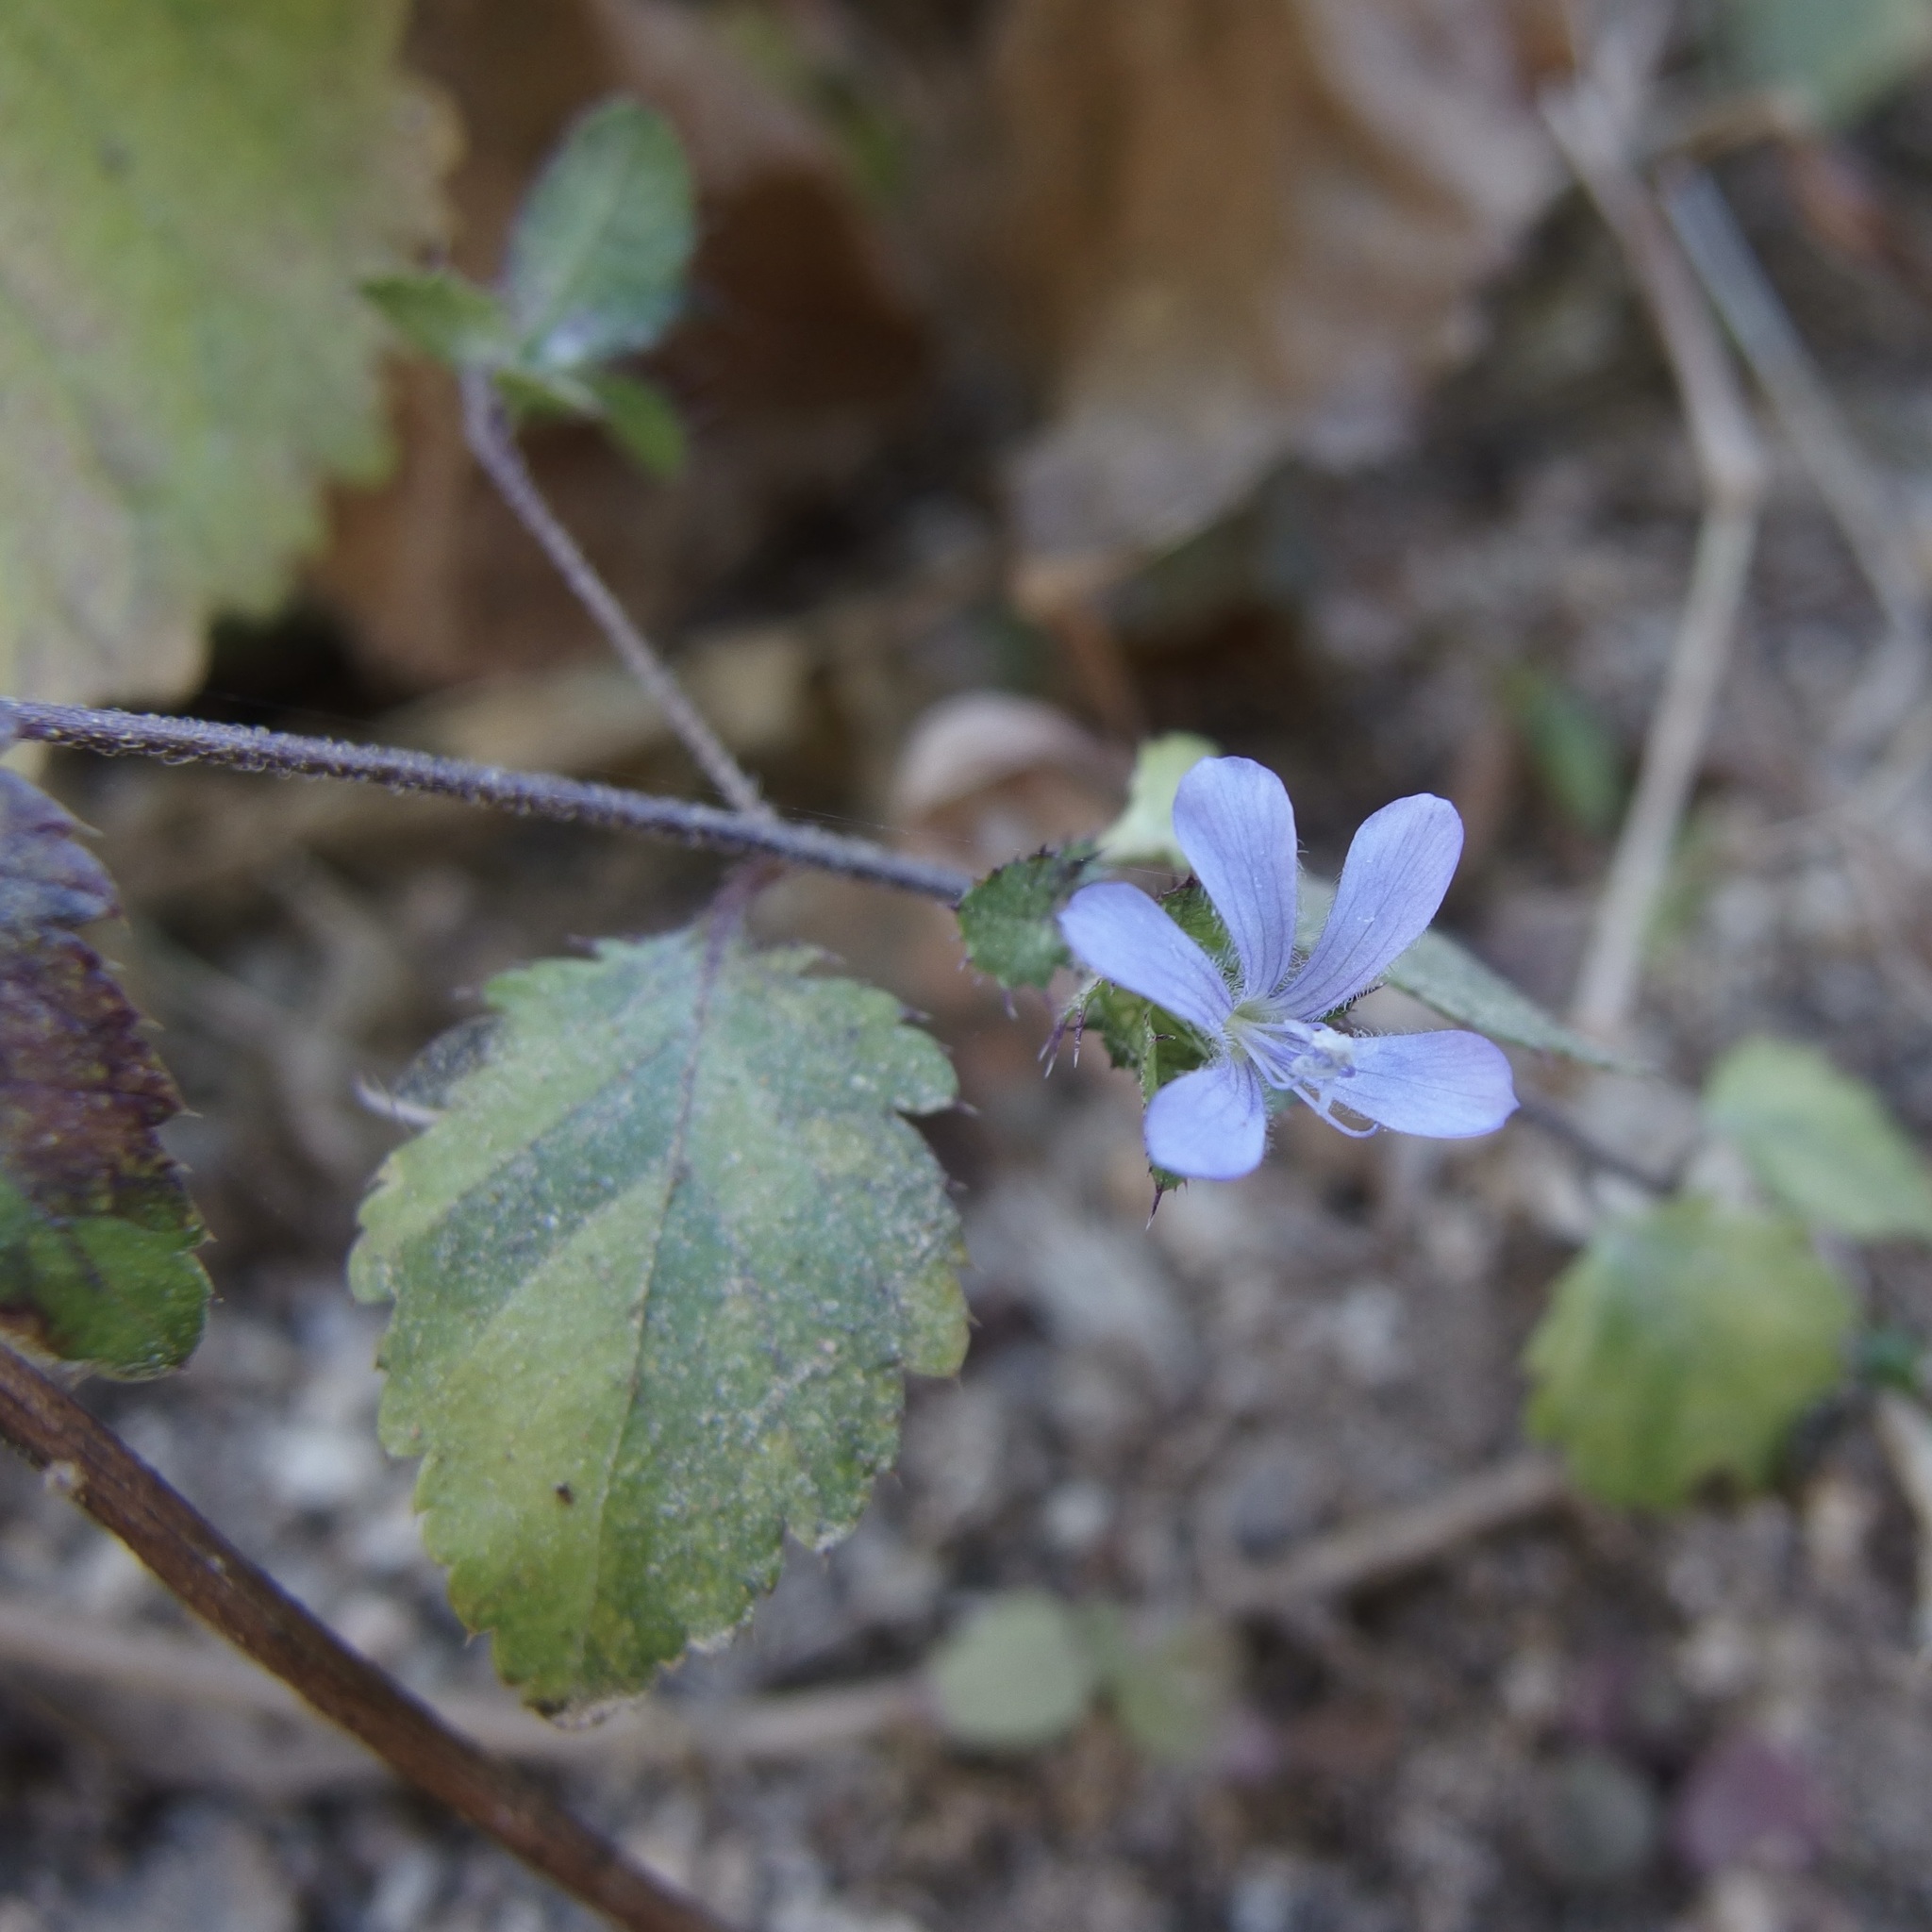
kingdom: Plantae
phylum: Tracheophyta
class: Magnoliopsida
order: Ericales
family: Polemoniaceae
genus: Loeselia
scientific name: Loeselia ciliata
